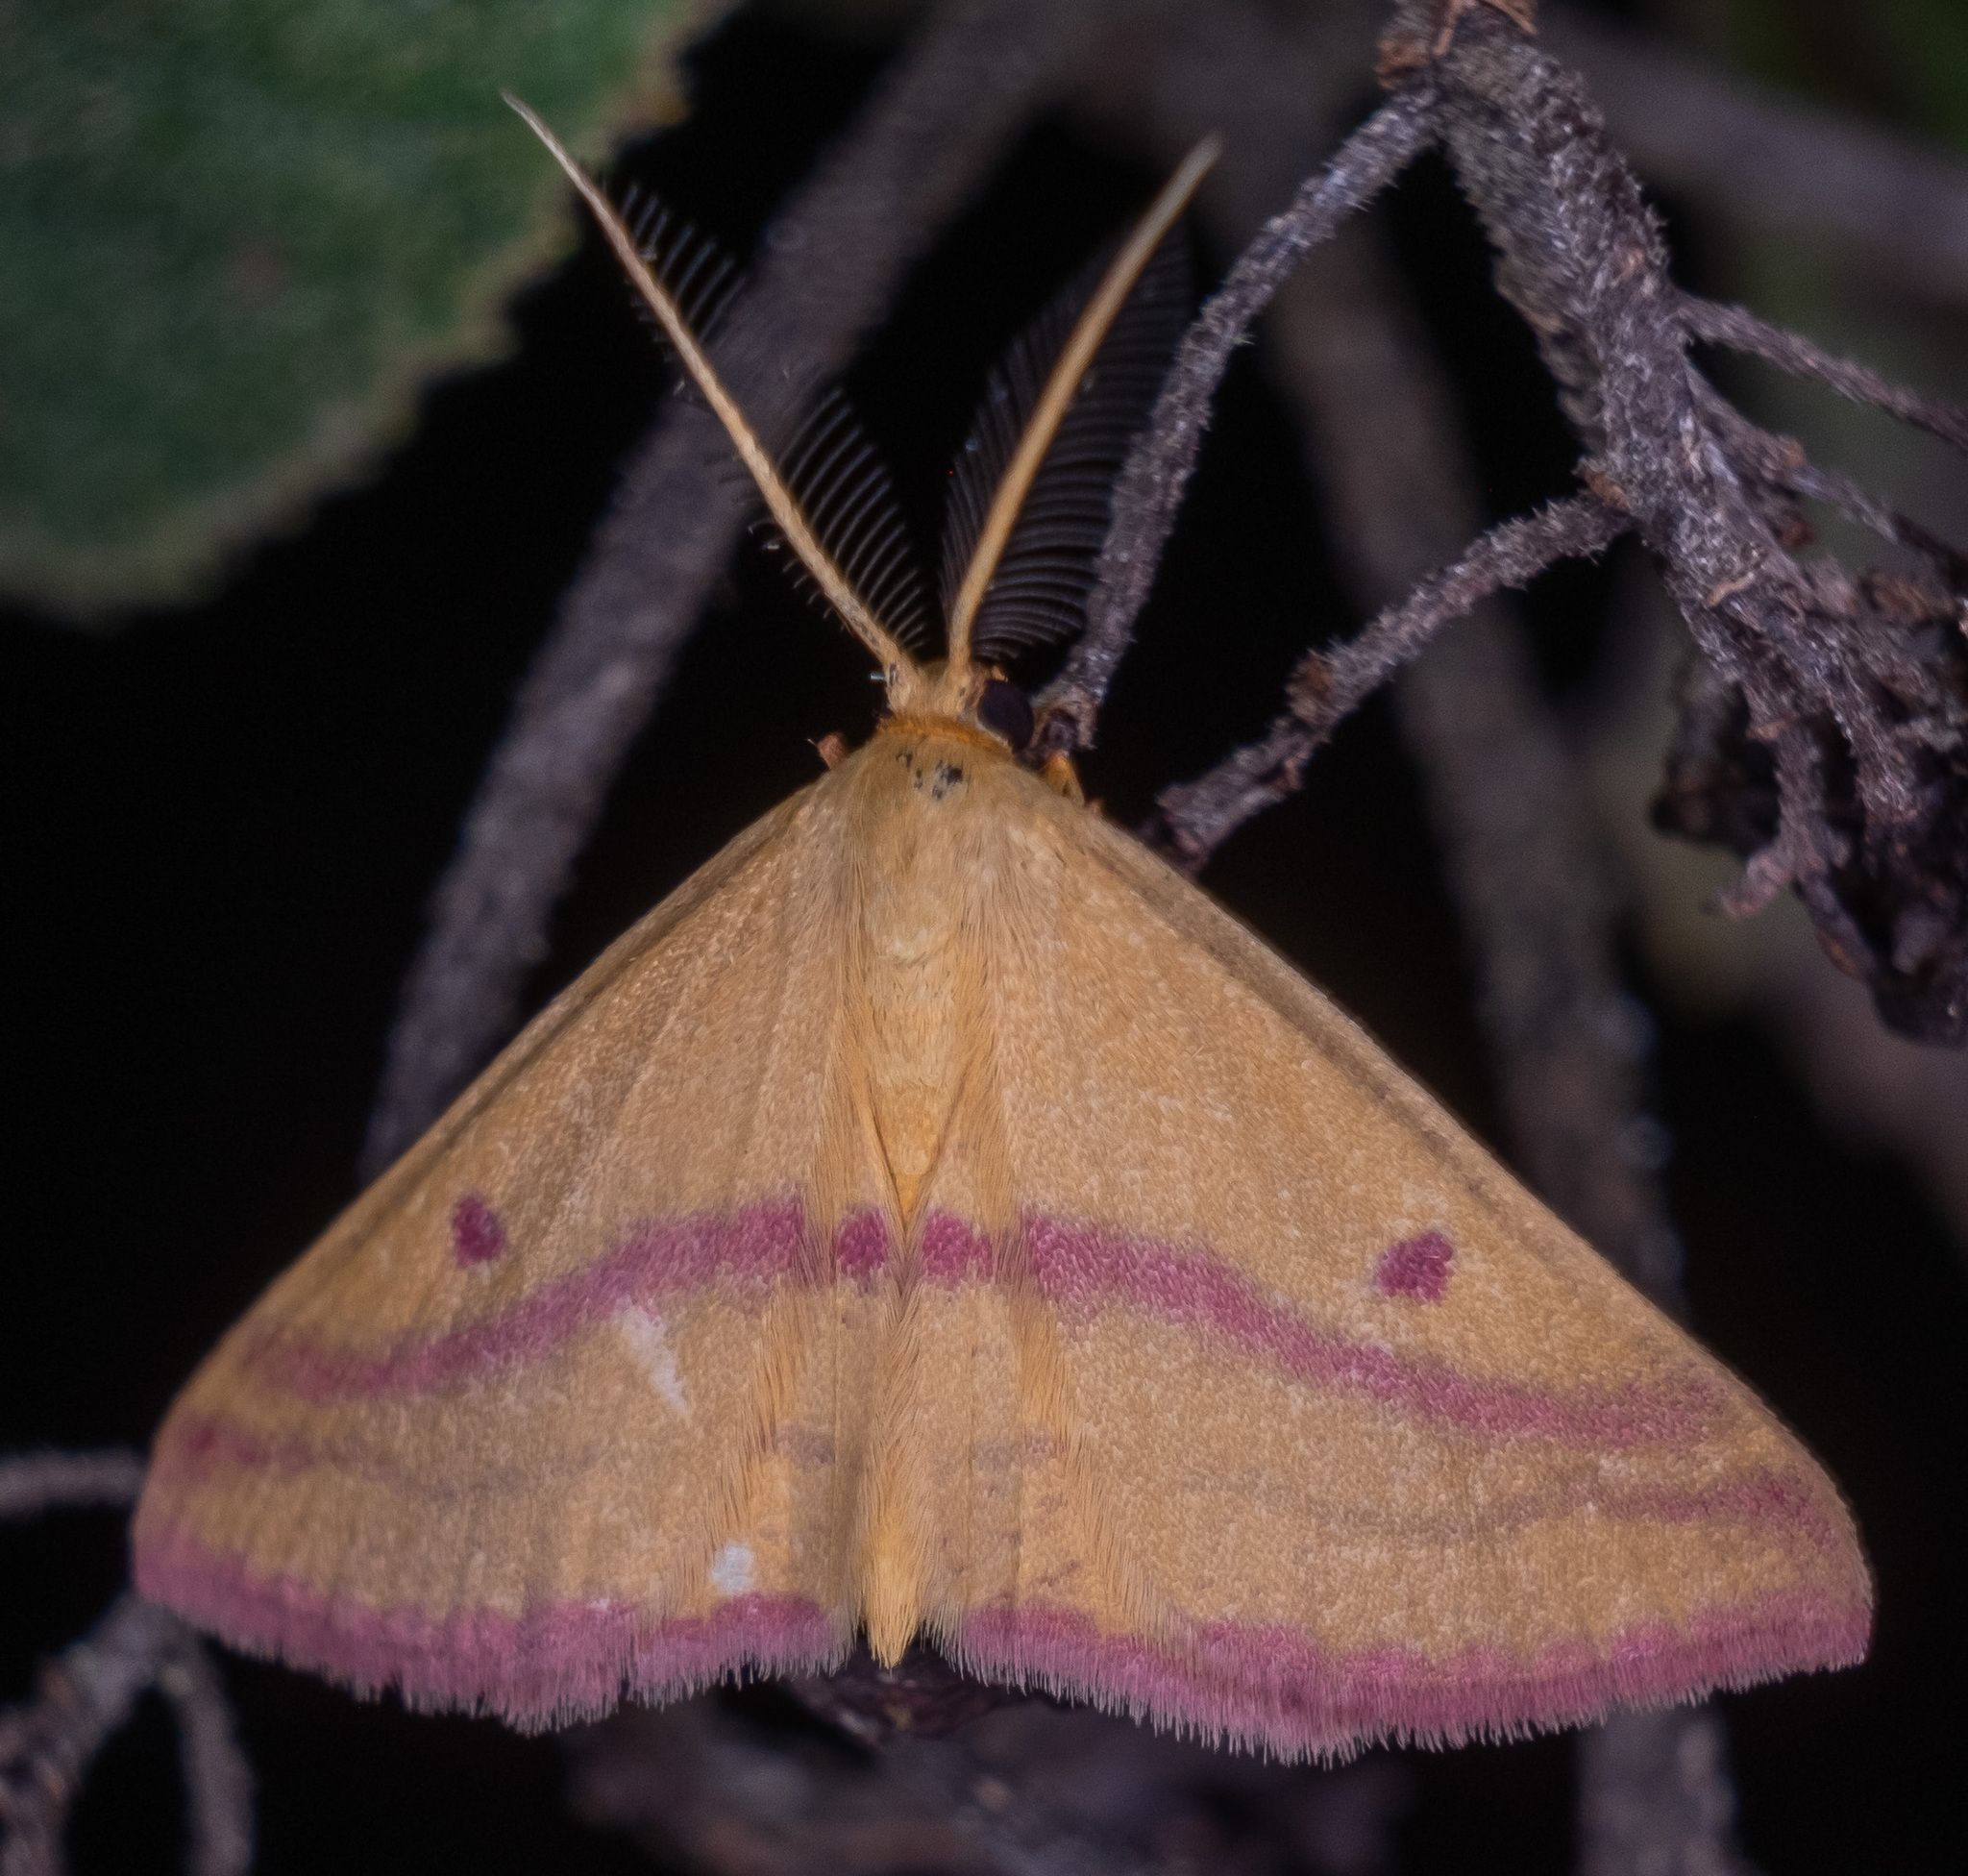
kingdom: Animalia
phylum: Arthropoda
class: Insecta
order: Lepidoptera
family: Geometridae
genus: Haematopis
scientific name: Haematopis grataria
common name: Chickweed geometer
